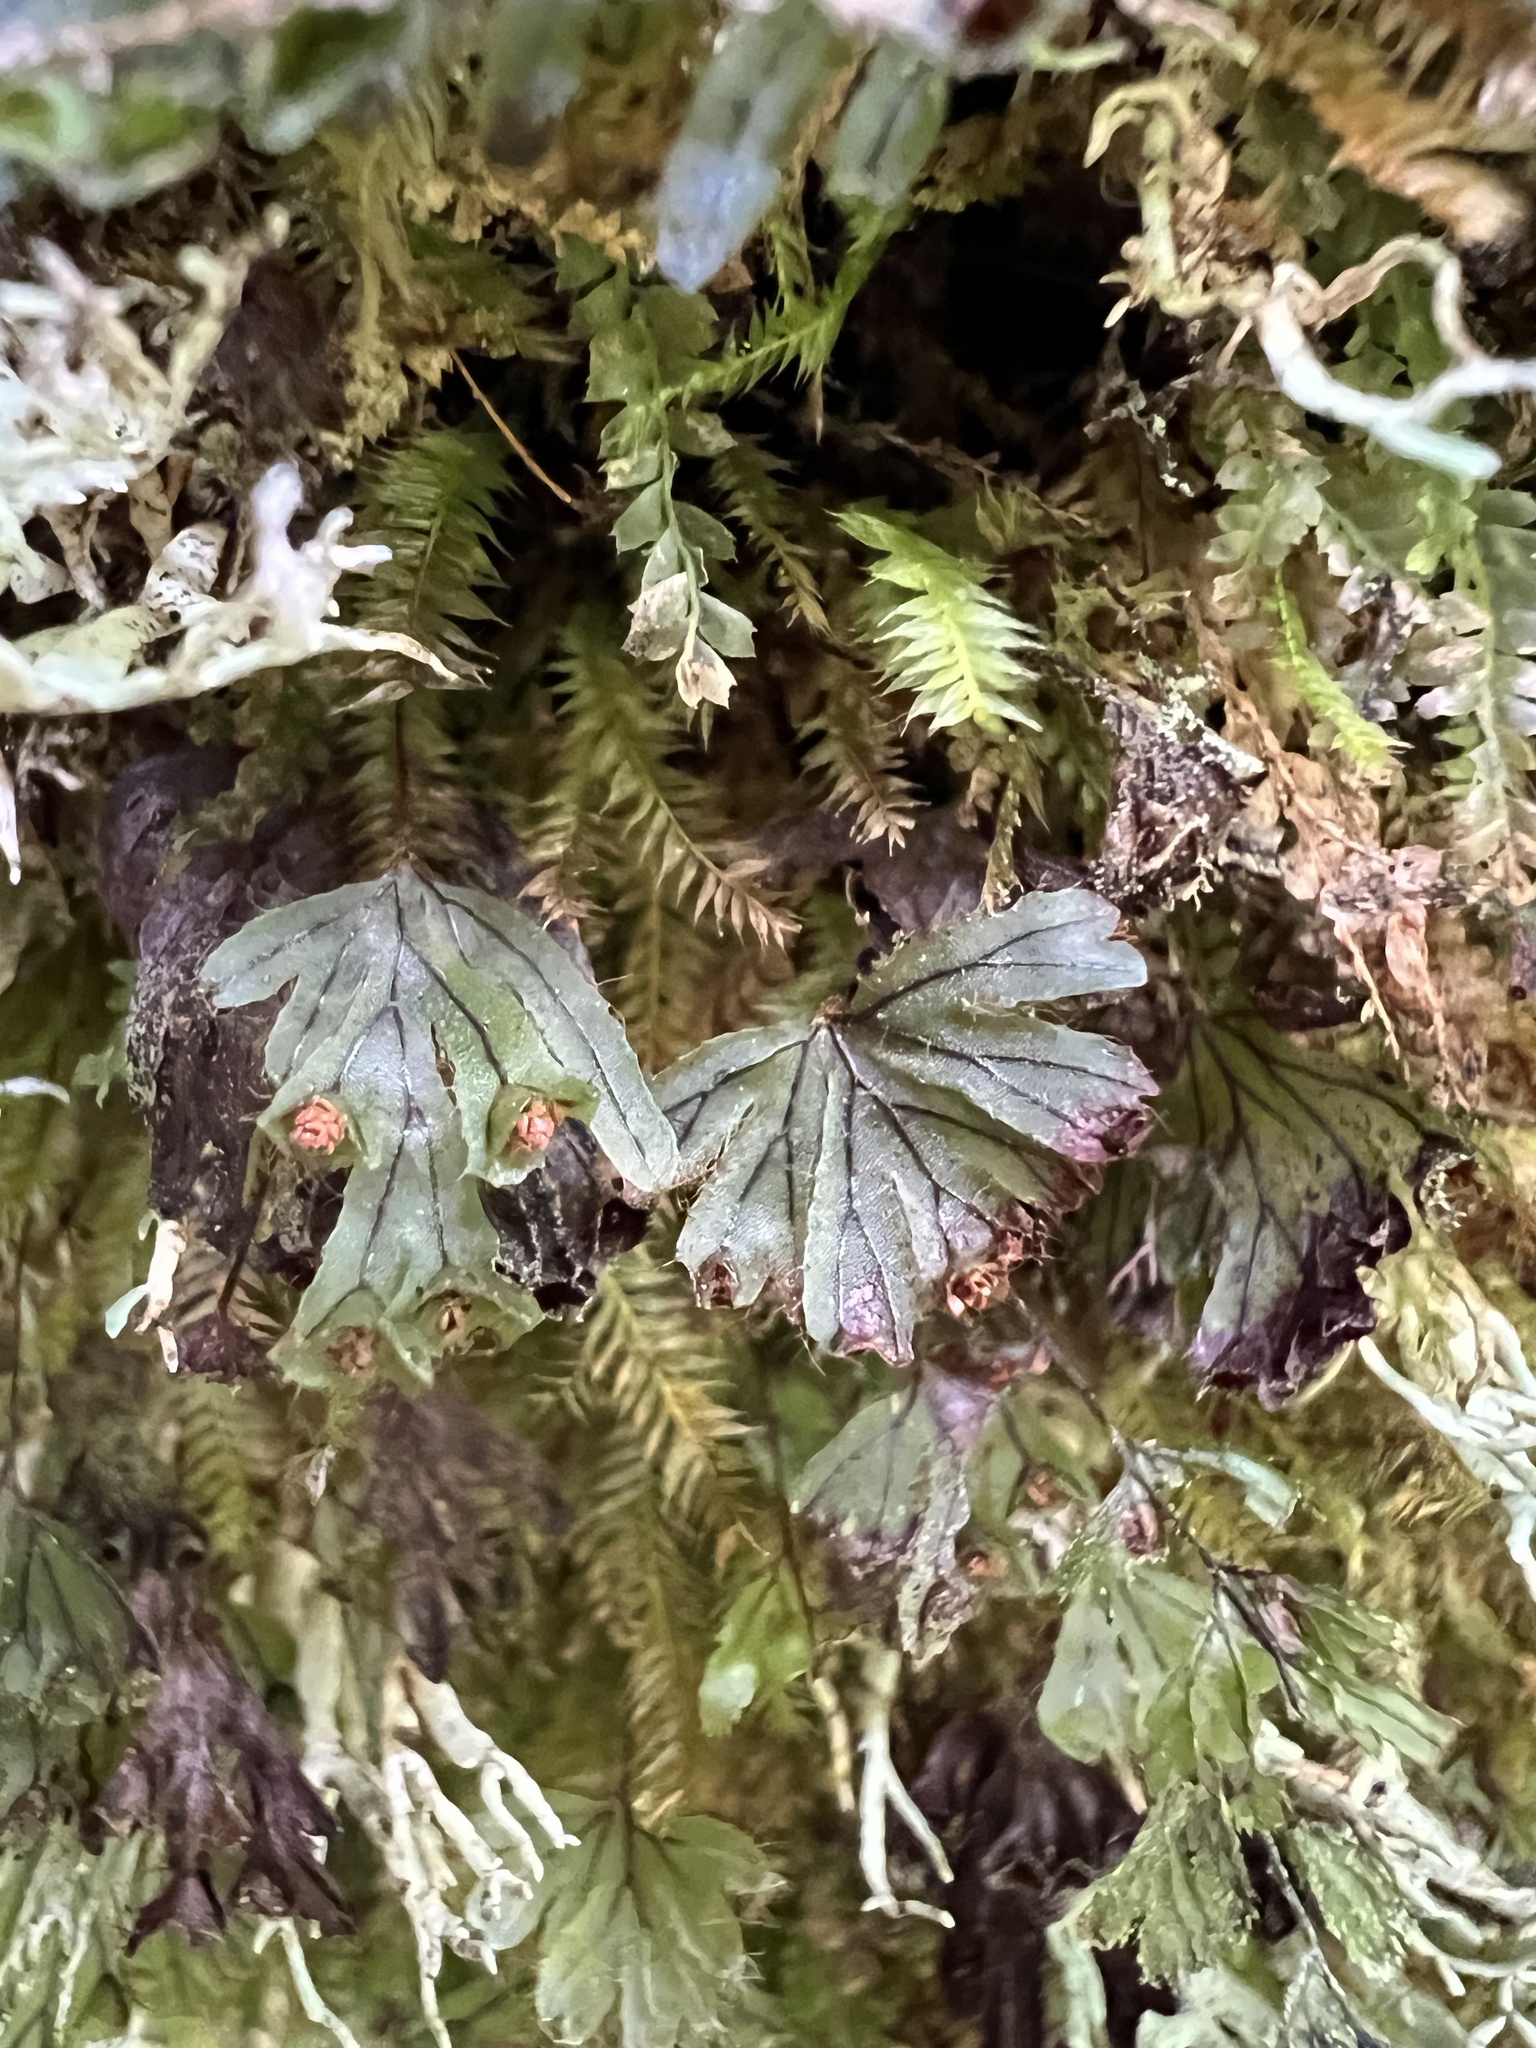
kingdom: Plantae
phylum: Tracheophyta
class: Polypodiopsida
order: Hymenophyllales
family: Hymenophyllaceae
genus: Hymenophyllum
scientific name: Hymenophyllum lyallii
